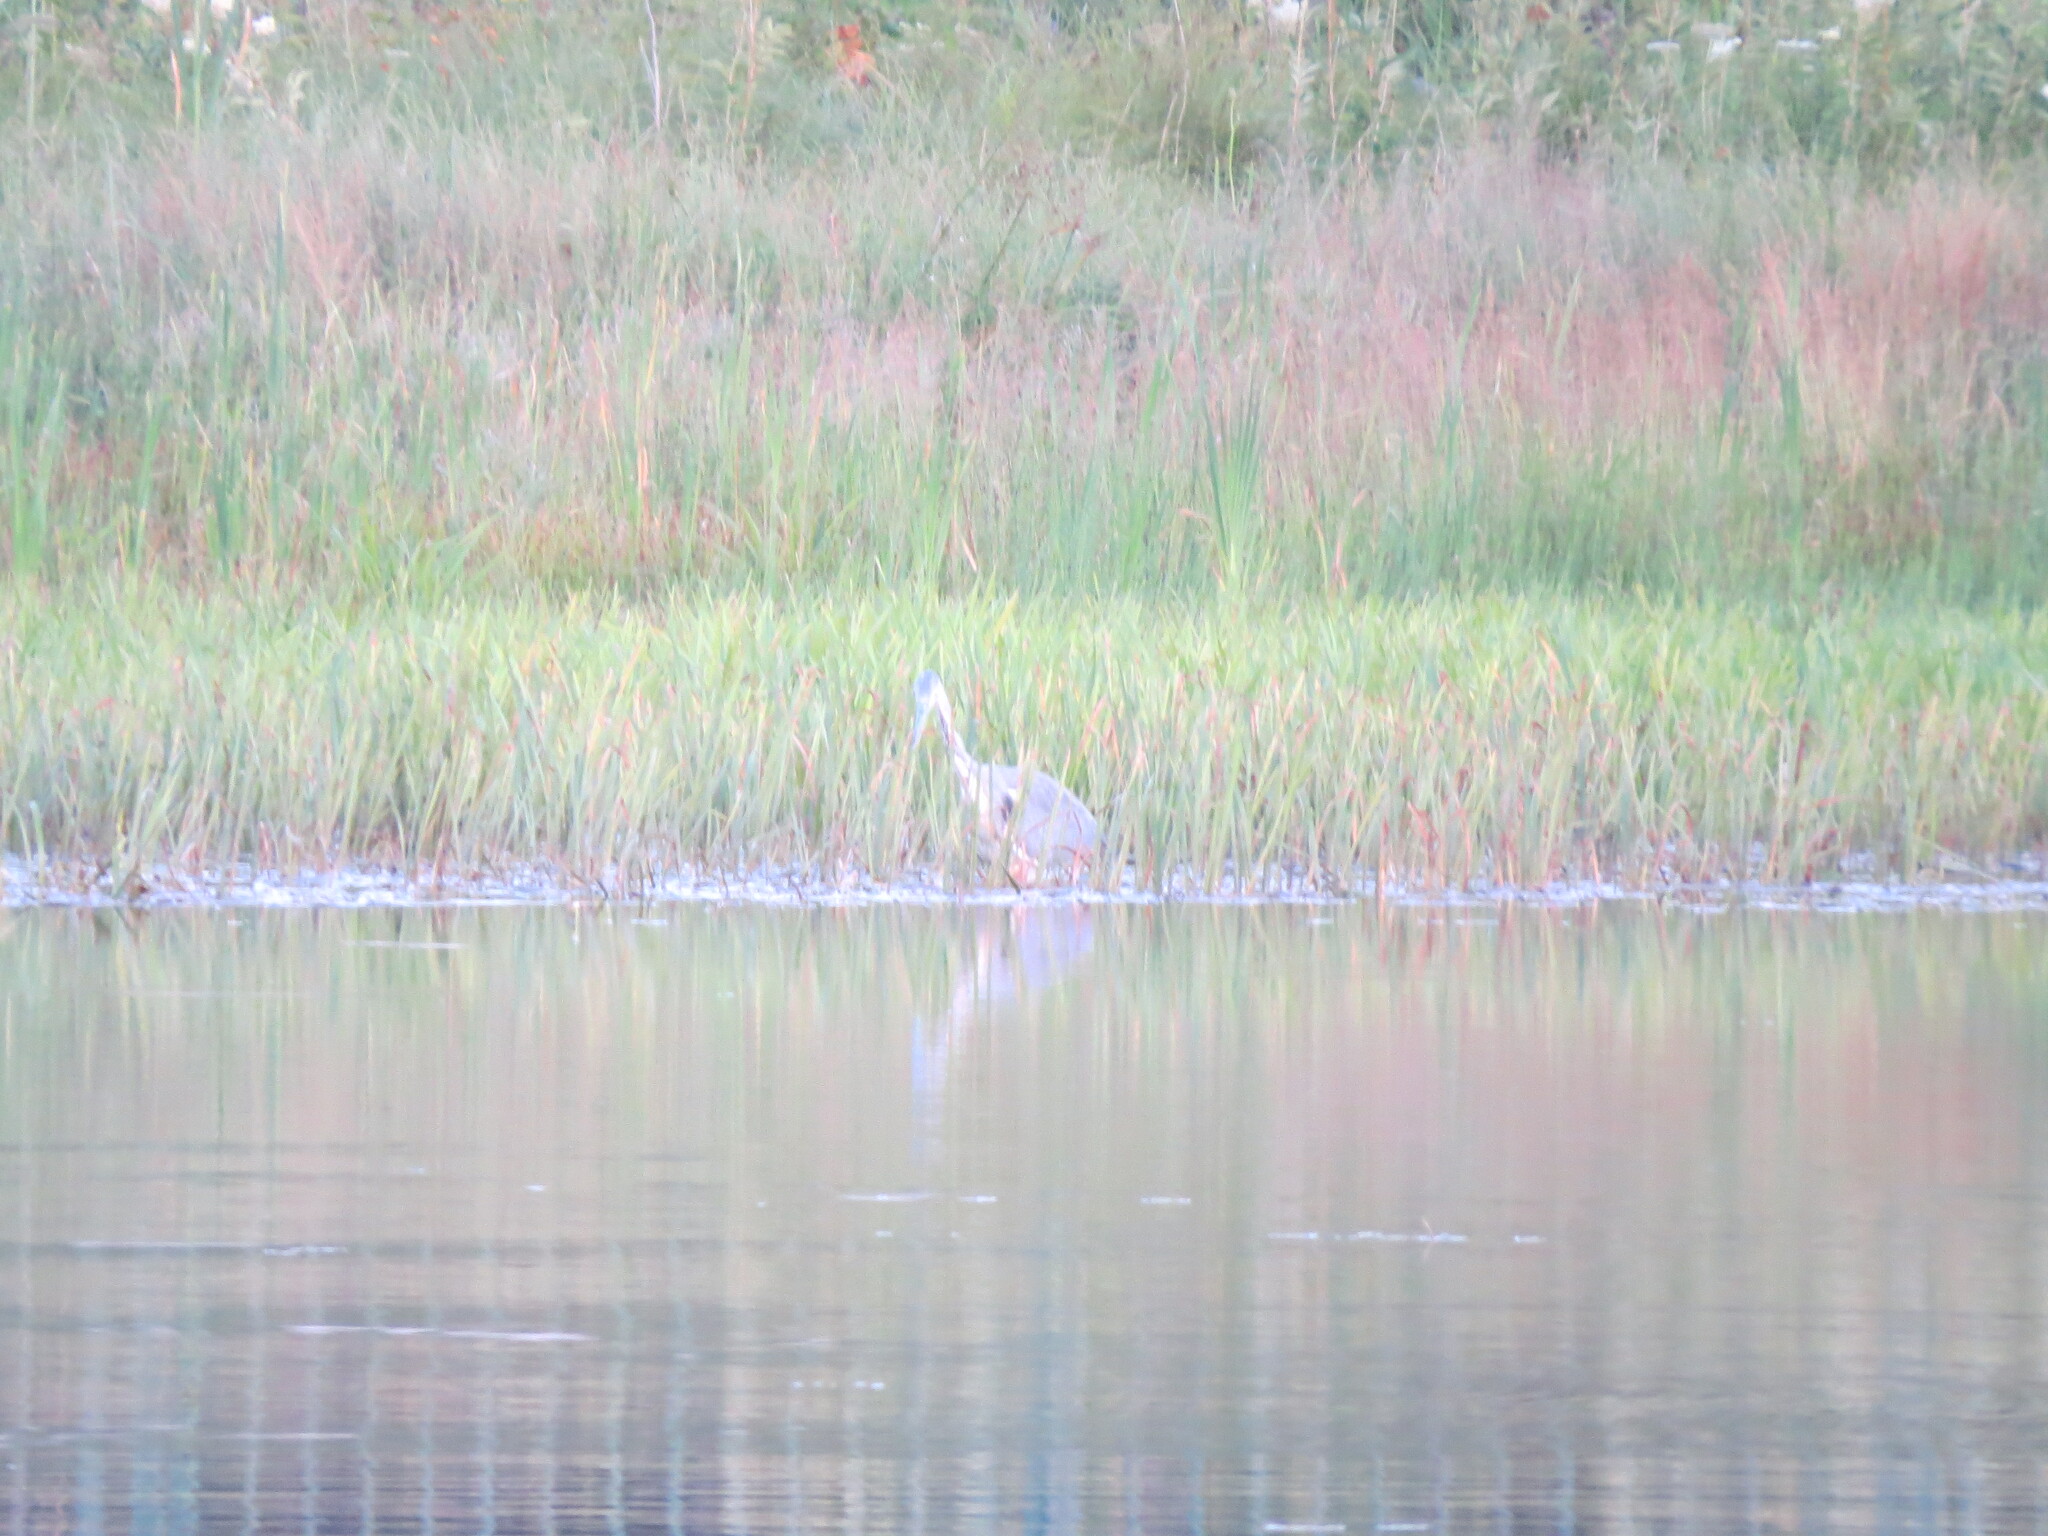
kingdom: Animalia
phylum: Chordata
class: Aves
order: Pelecaniformes
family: Ardeidae
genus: Ardea
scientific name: Ardea cinerea
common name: Grey heron
